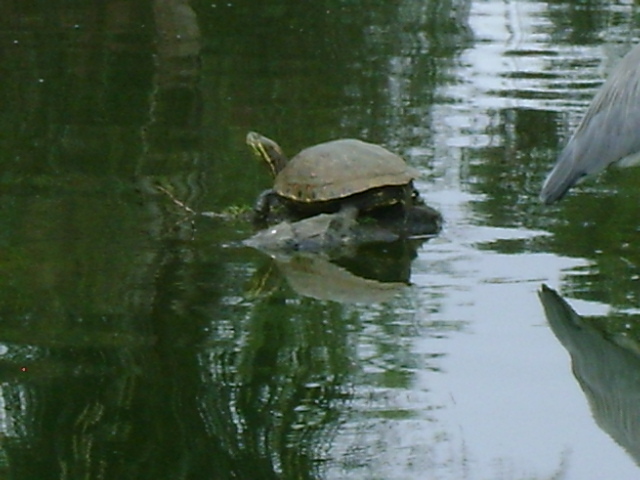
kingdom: Animalia
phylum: Chordata
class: Testudines
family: Emydidae
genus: Trachemys
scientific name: Trachemys scripta
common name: Slider
